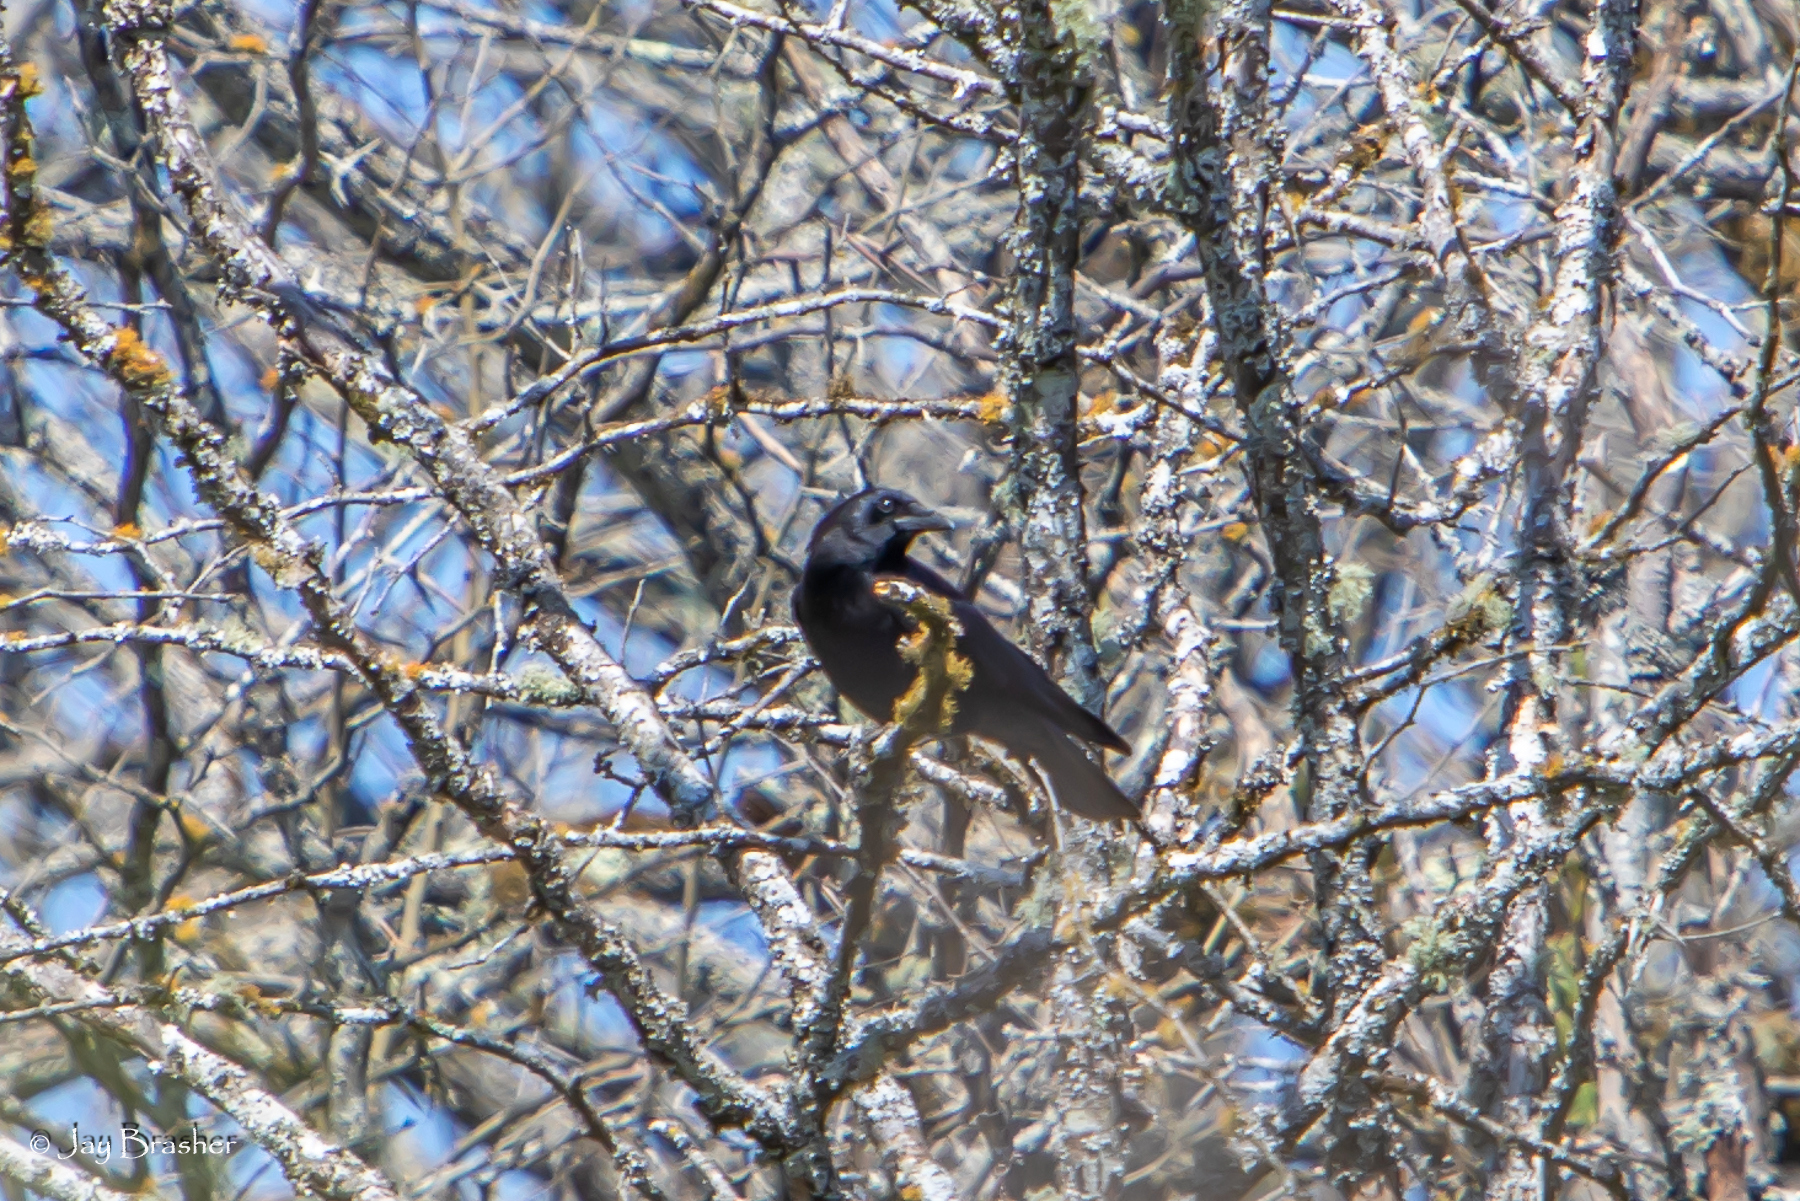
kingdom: Animalia
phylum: Chordata
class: Aves
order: Passeriformes
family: Corvidae
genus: Corvus
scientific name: Corvus brachyrhynchos
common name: American crow
